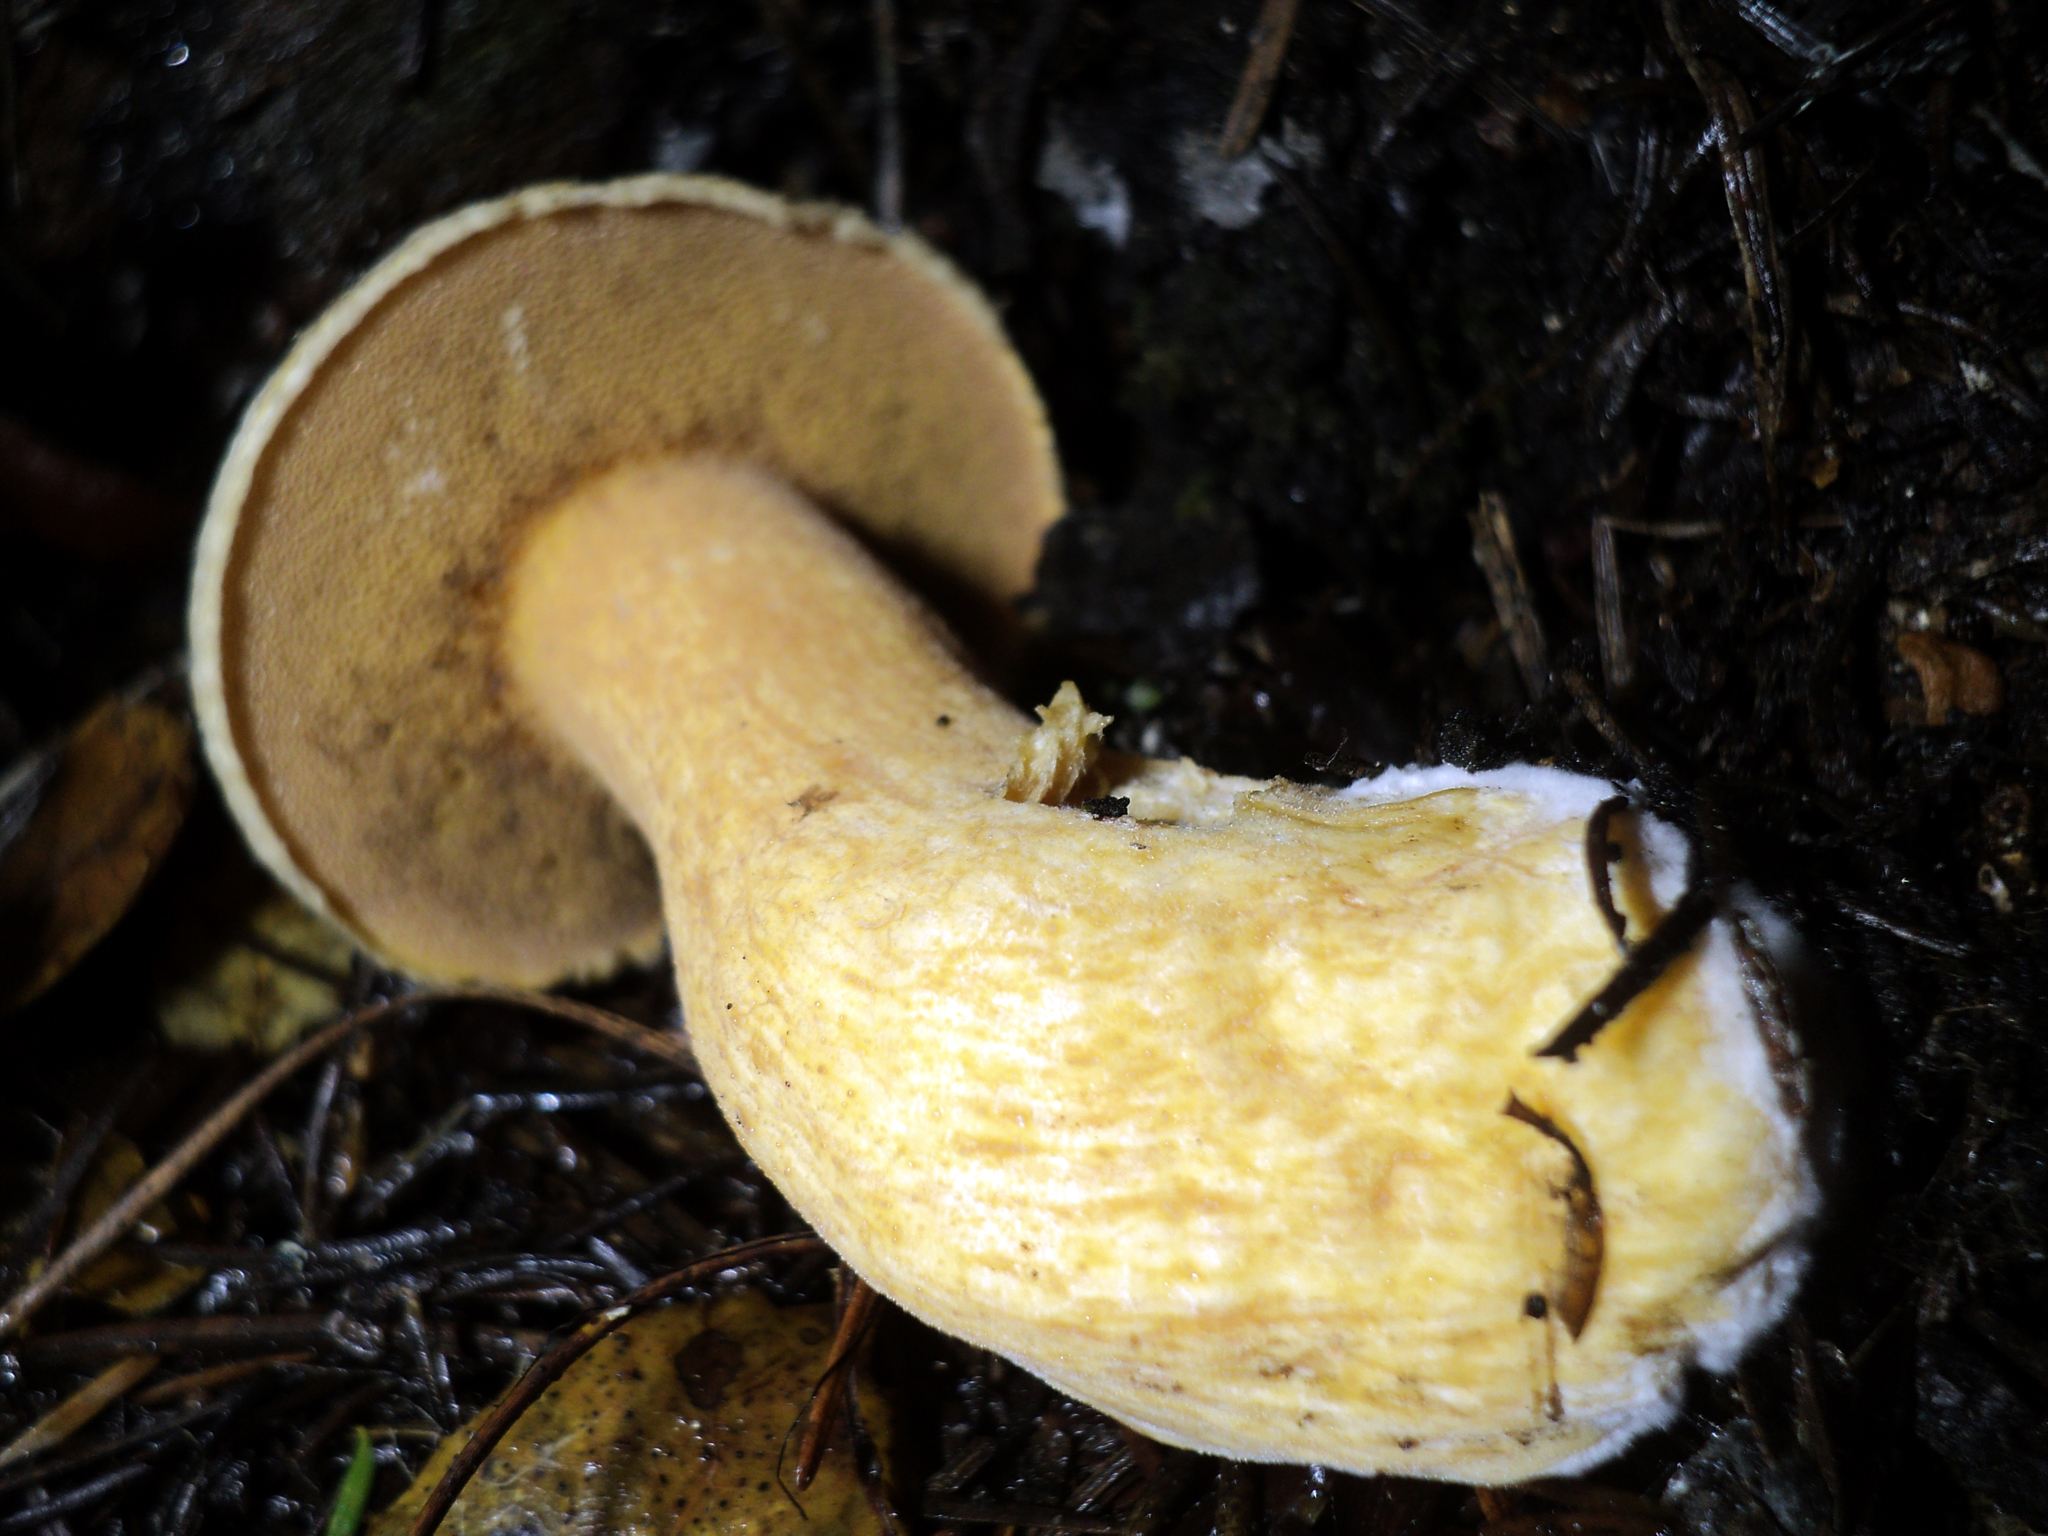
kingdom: Fungi
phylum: Basidiomycota
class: Agaricomycetes
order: Boletales
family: Suillaceae
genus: Suillus
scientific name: Suillus fuscotomentosus
